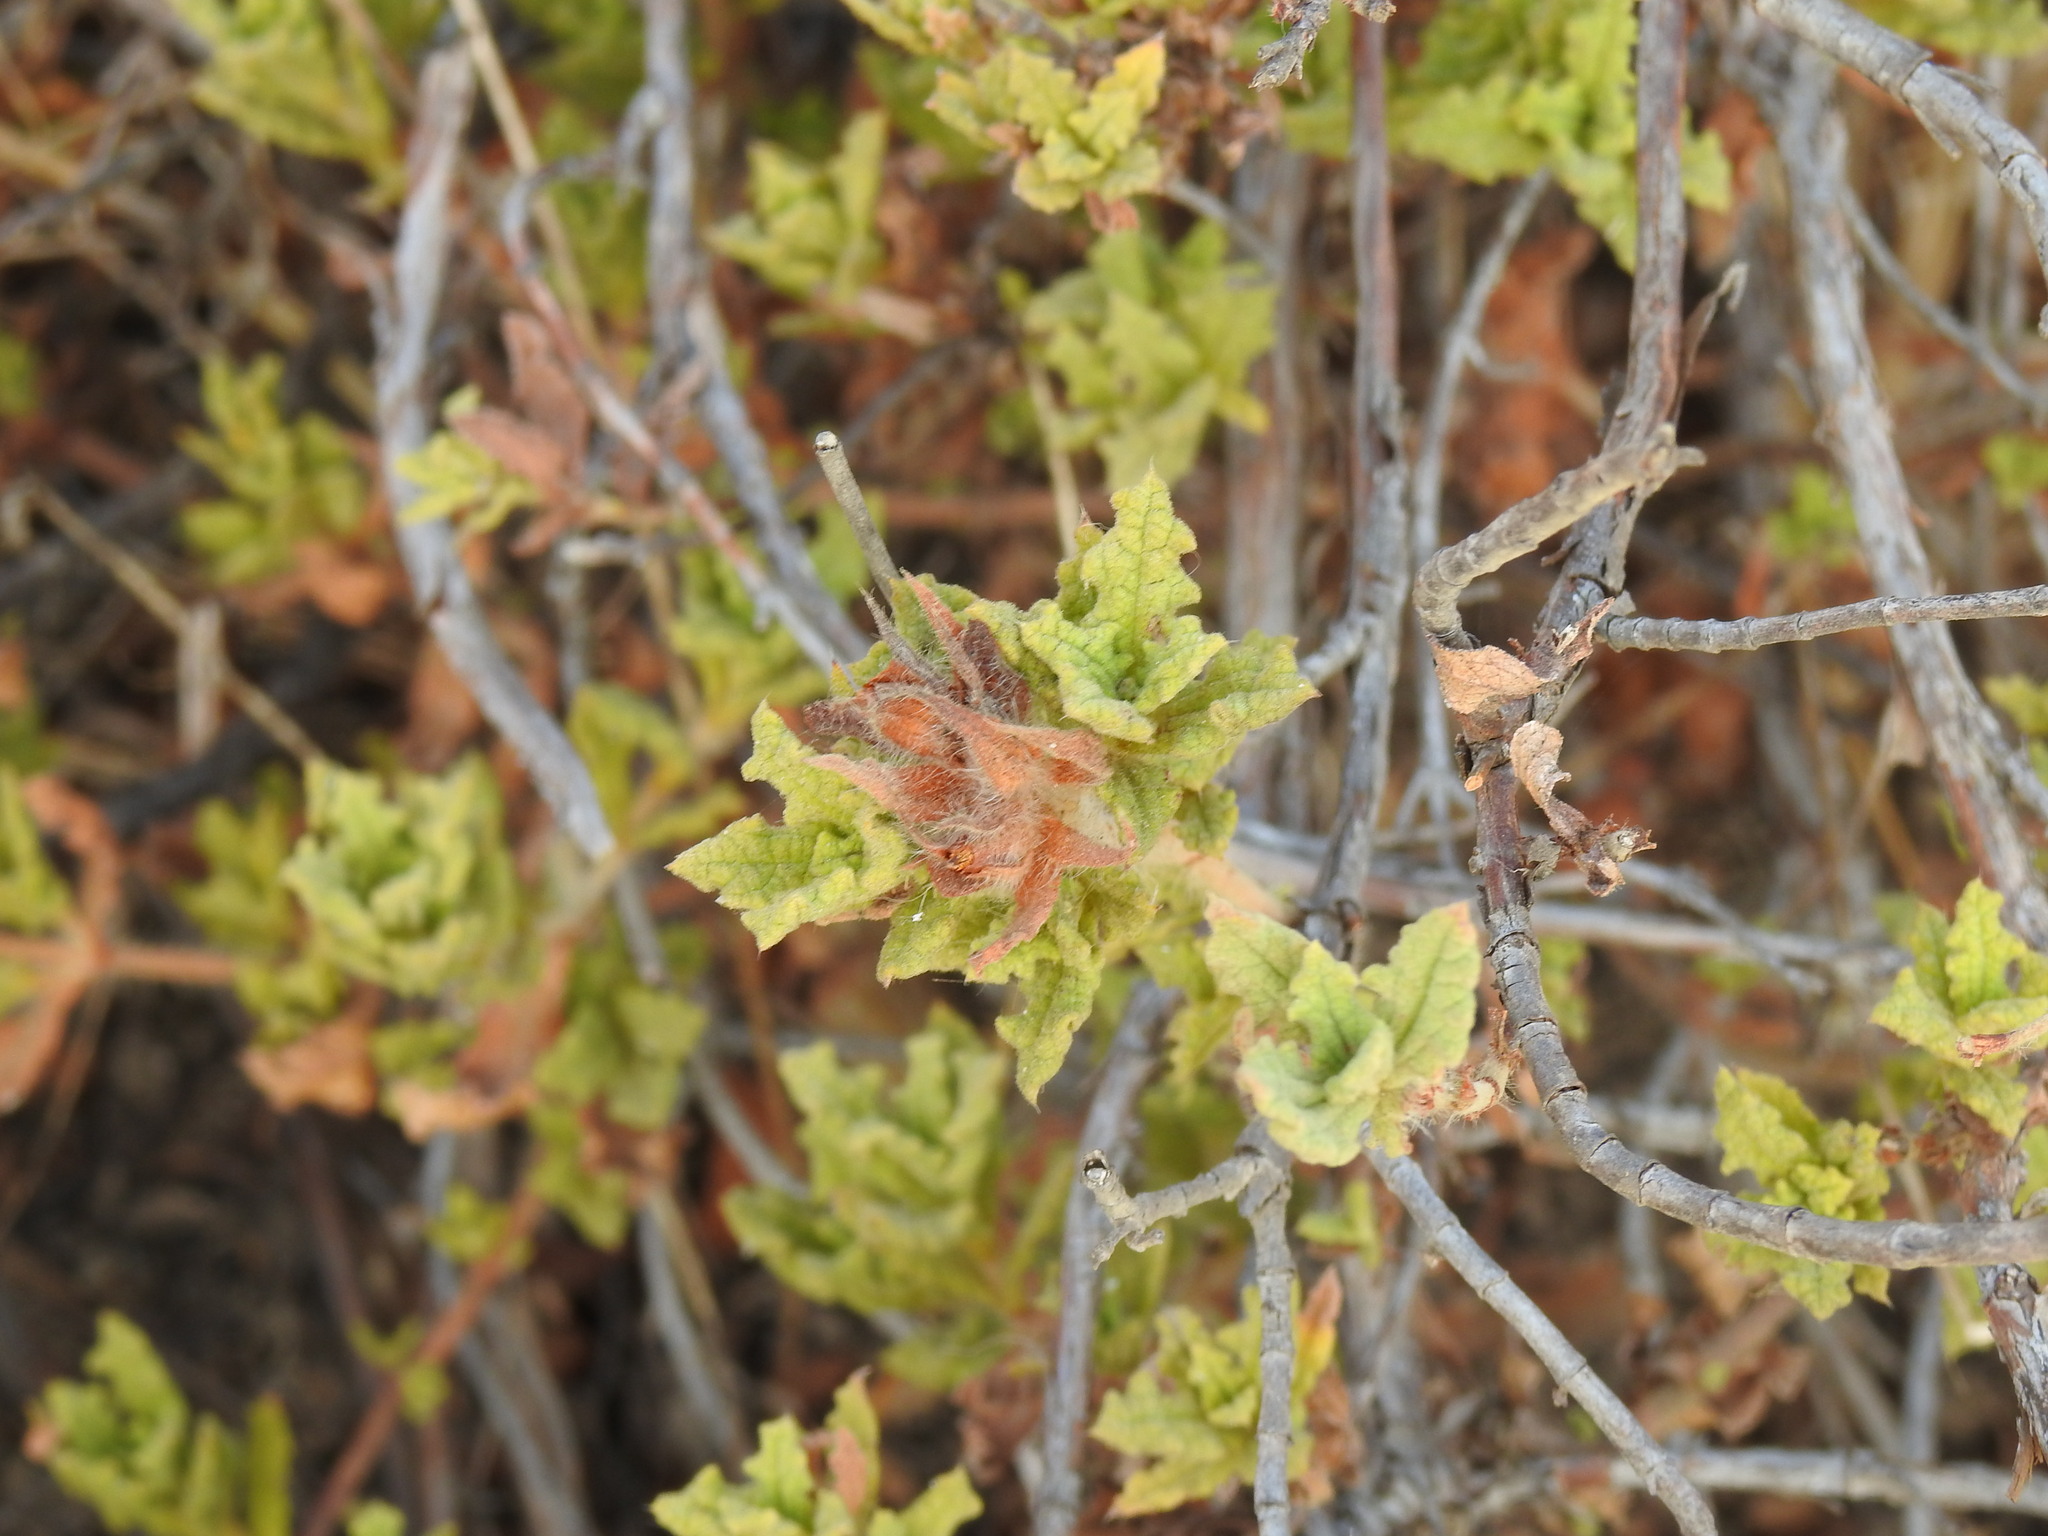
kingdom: Plantae
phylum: Tracheophyta
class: Magnoliopsida
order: Malvales
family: Cistaceae
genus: Cistus
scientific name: Cistus crispus
